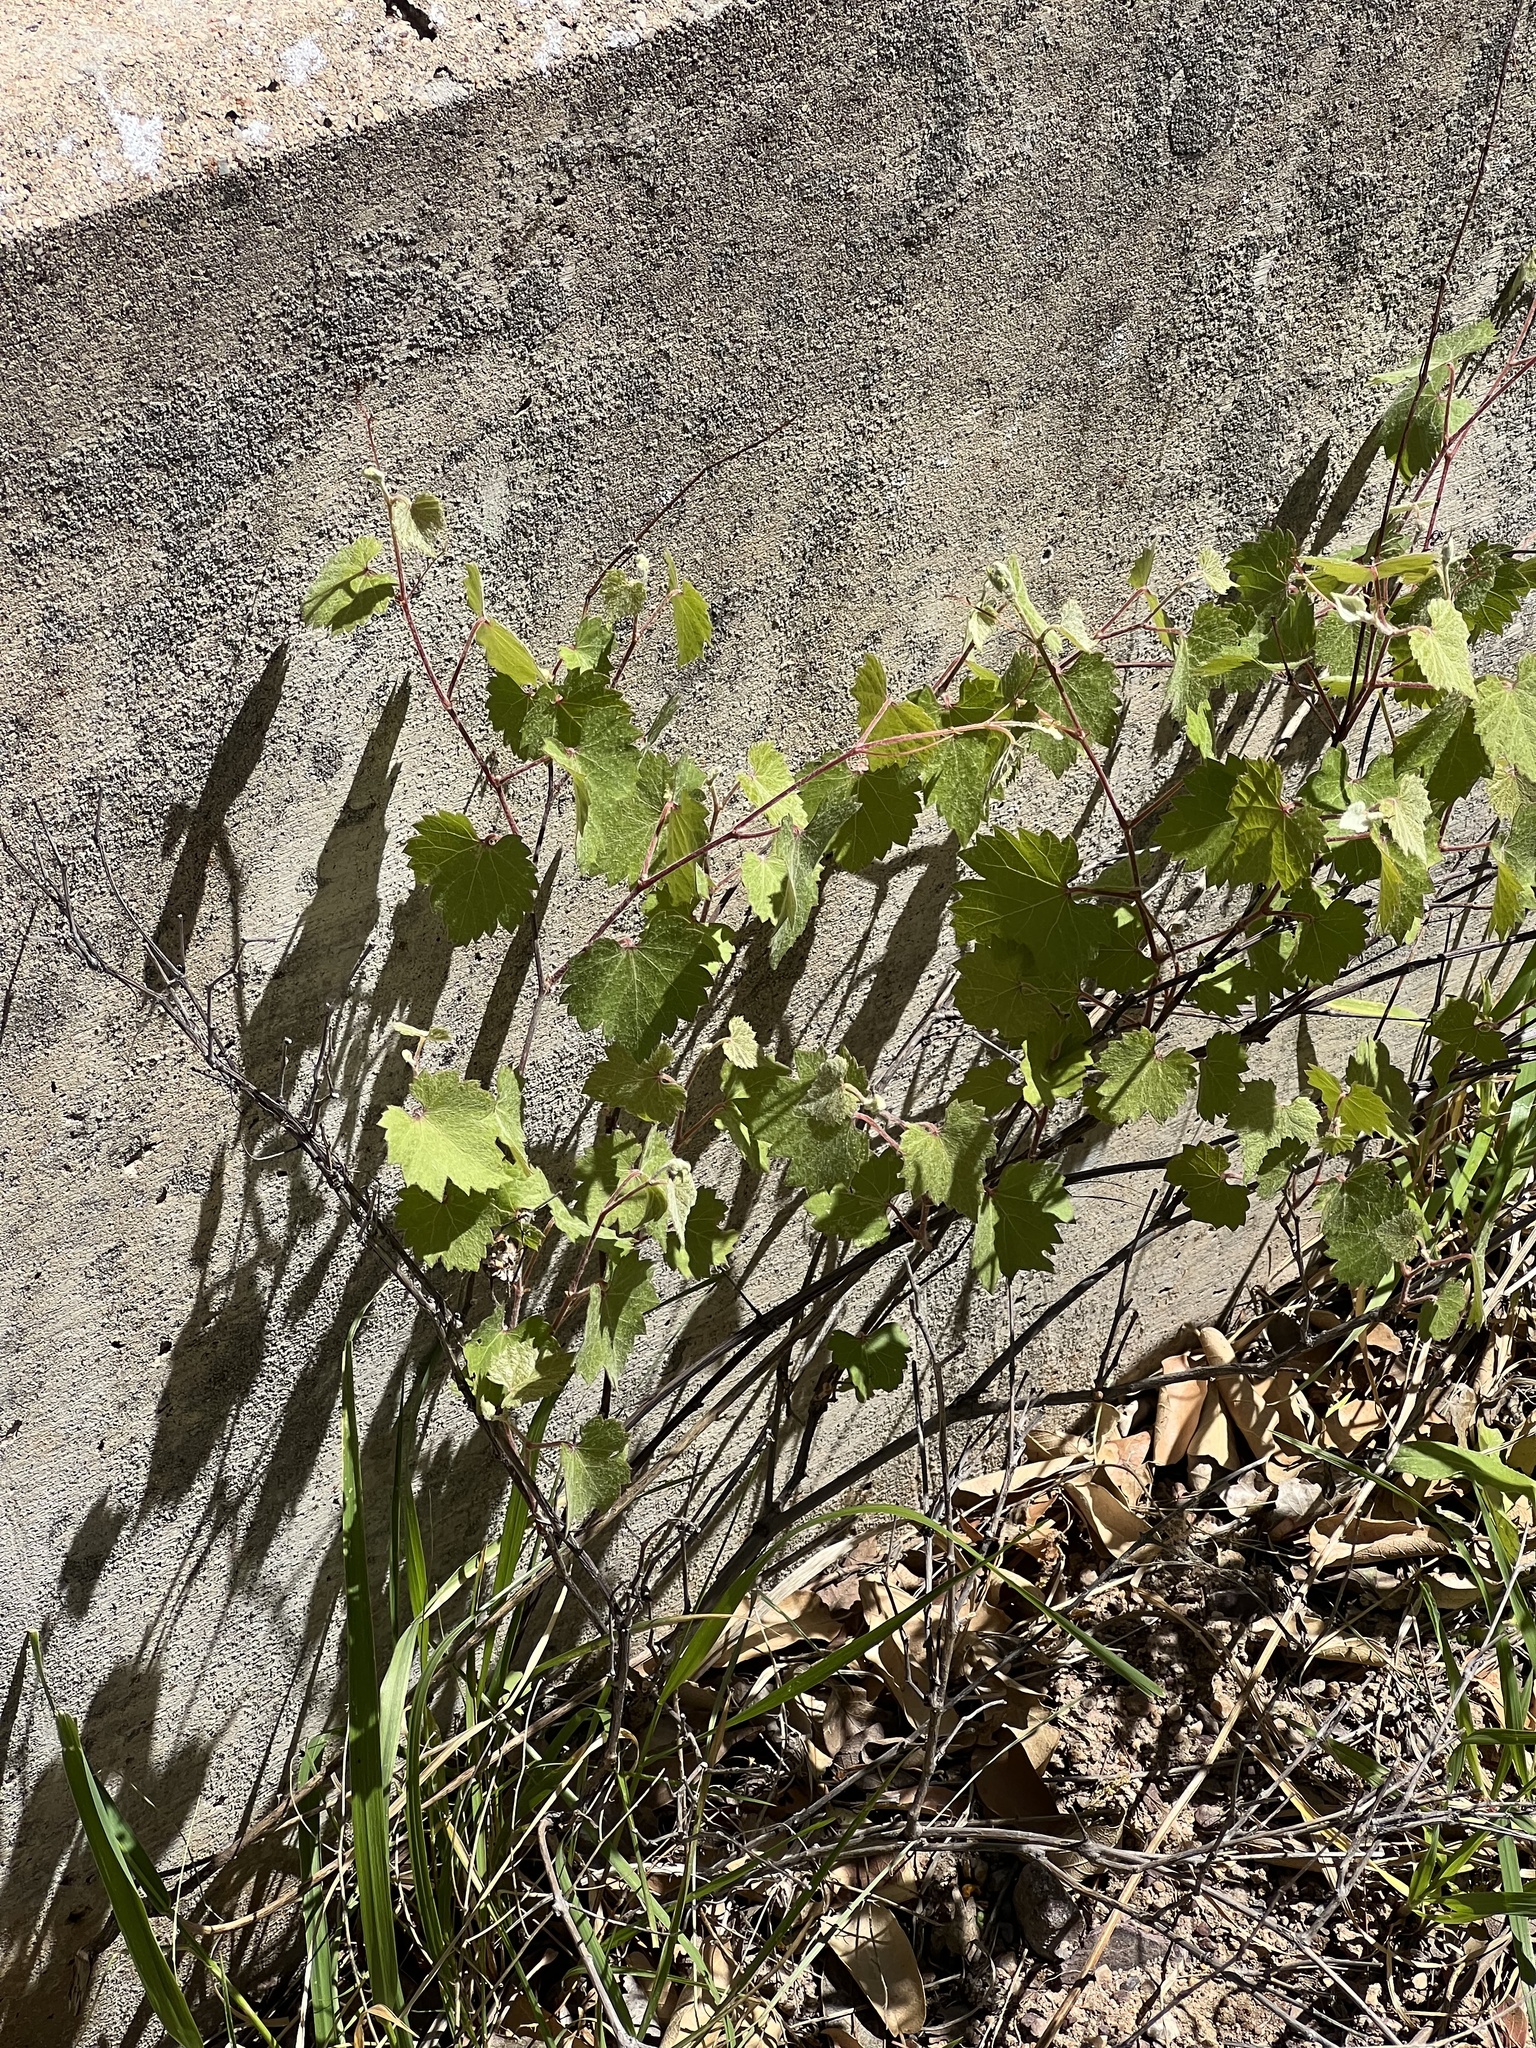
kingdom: Plantae
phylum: Tracheophyta
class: Magnoliopsida
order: Vitales
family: Vitaceae
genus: Vitis
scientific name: Vitis arizonica
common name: Canyon grape
